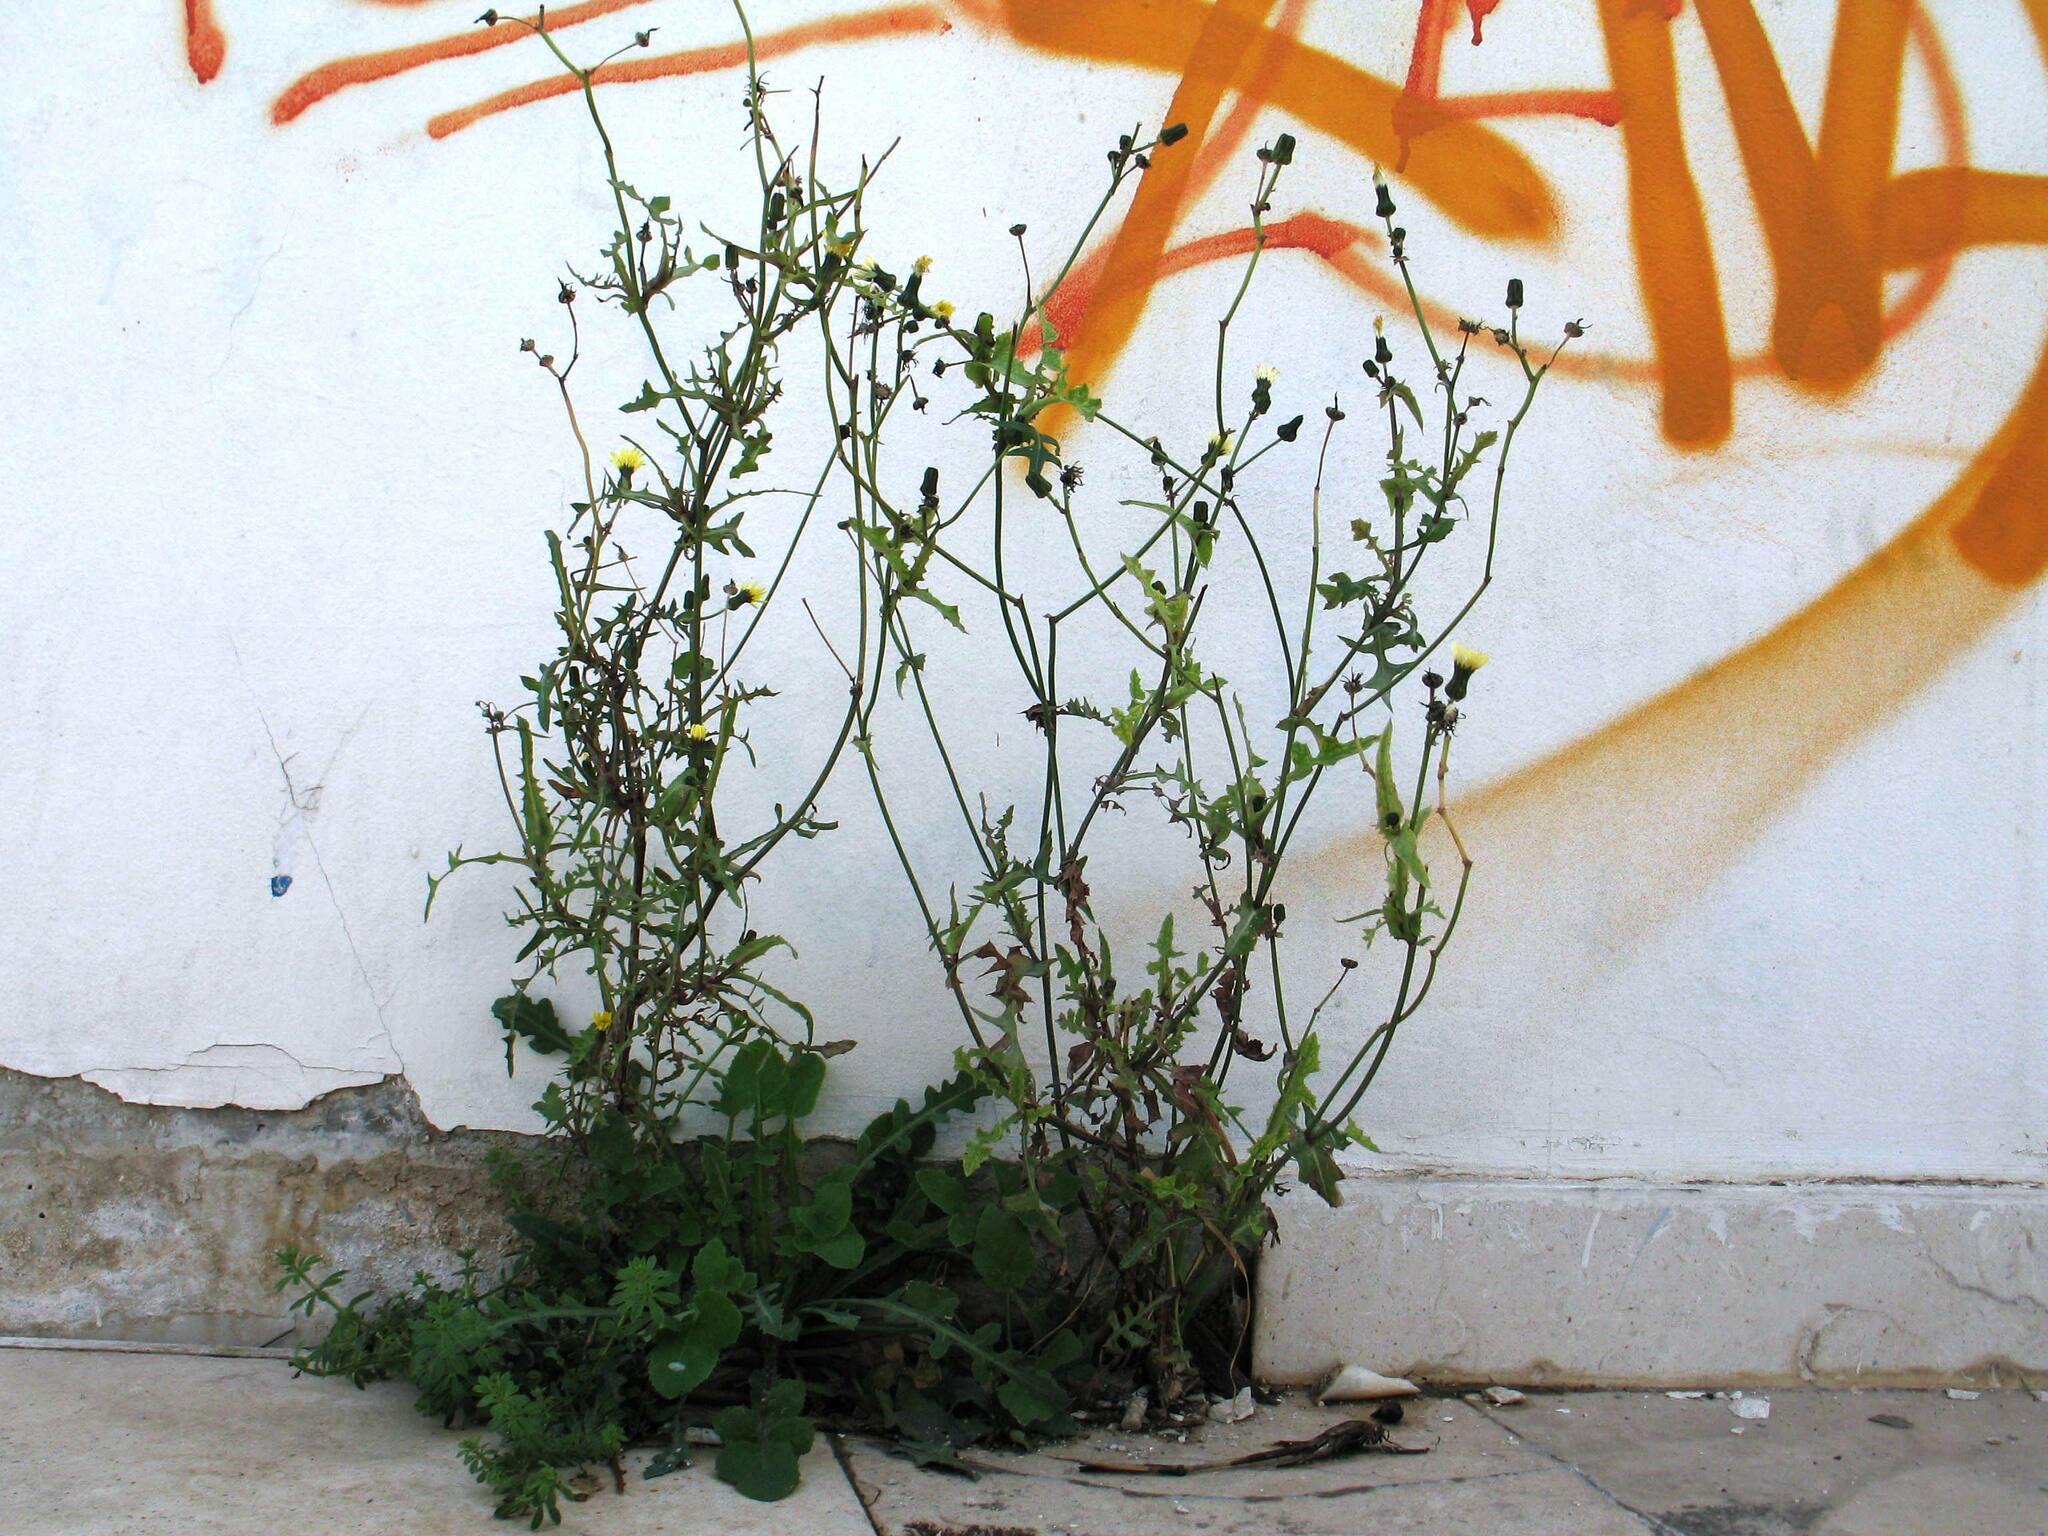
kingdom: Plantae
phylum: Tracheophyta
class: Magnoliopsida
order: Asterales
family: Asteraceae
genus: Sonchus
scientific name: Sonchus oleraceus
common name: Common sowthistle
